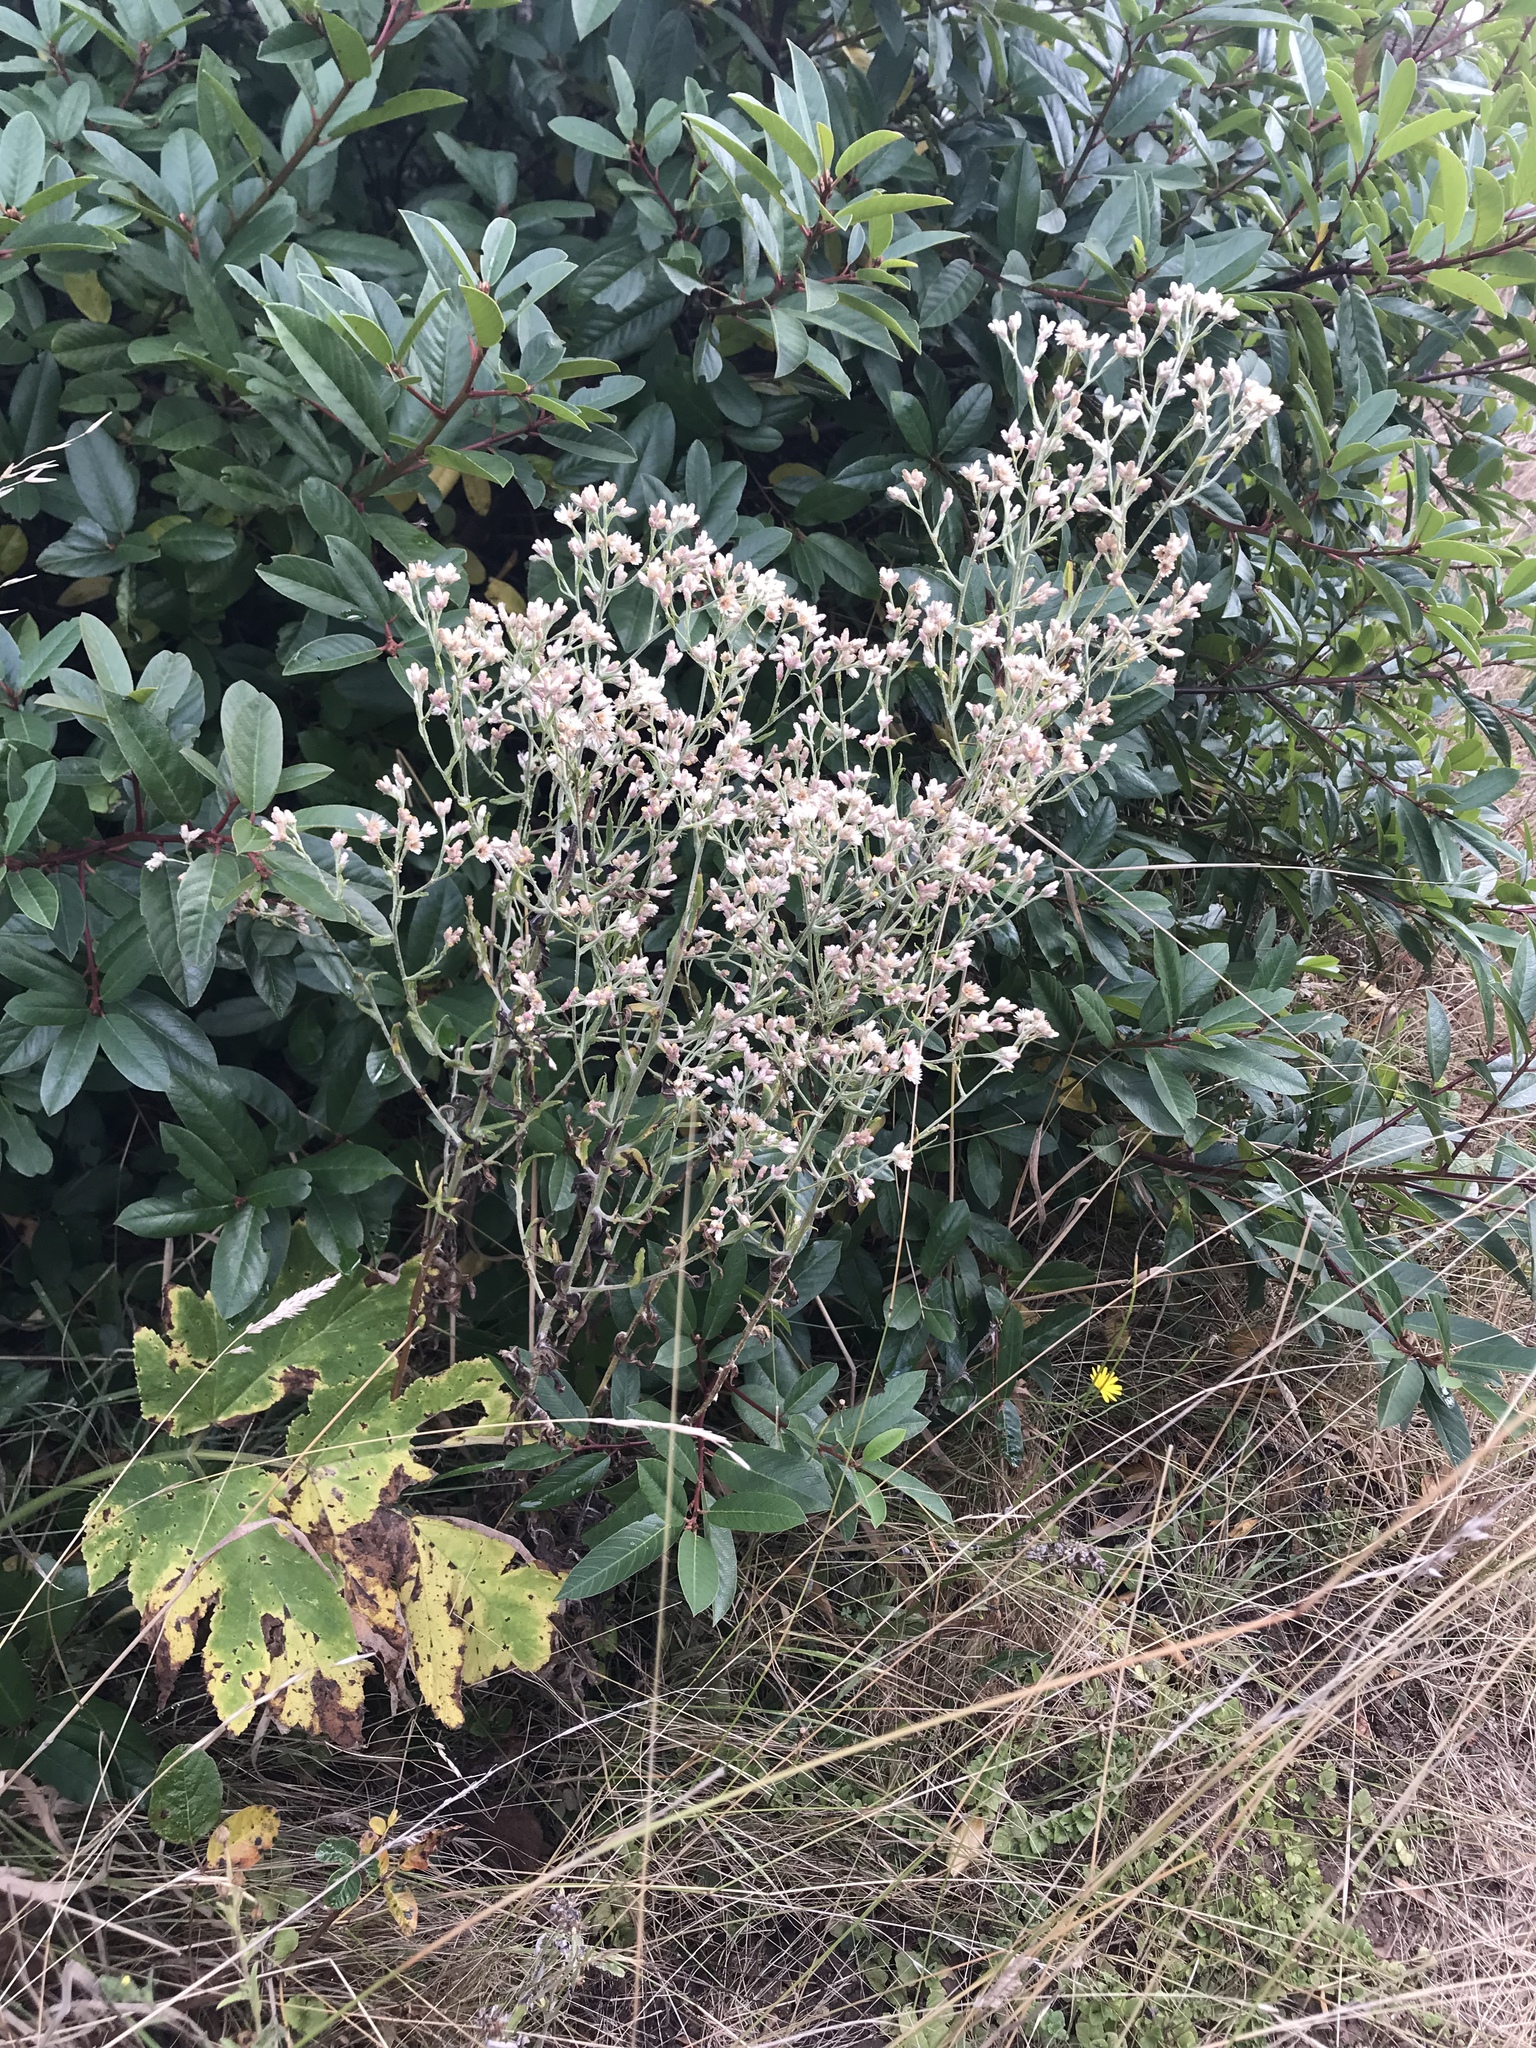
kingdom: Plantae
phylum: Tracheophyta
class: Magnoliopsida
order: Asterales
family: Asteraceae
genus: Pseudognaphalium
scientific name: Pseudognaphalium ramosissimum
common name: Pink rabbit-tobacco
